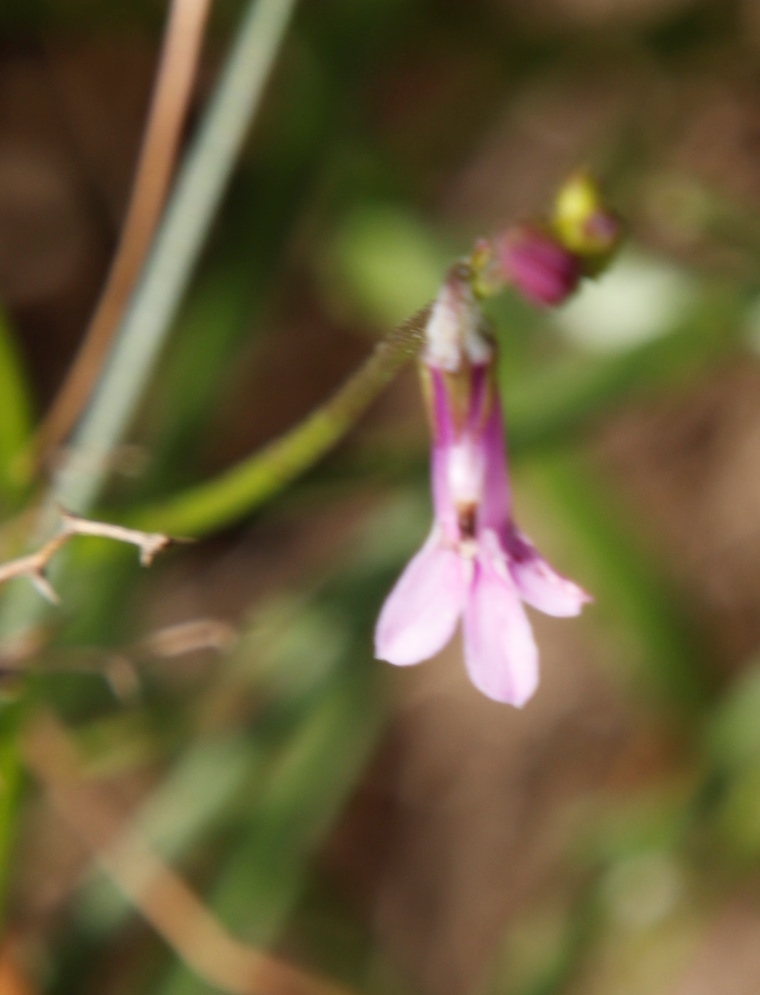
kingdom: Plantae
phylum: Tracheophyta
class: Magnoliopsida
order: Asterales
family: Campanulaceae
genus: Lobelia
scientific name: Lobelia goetzei
